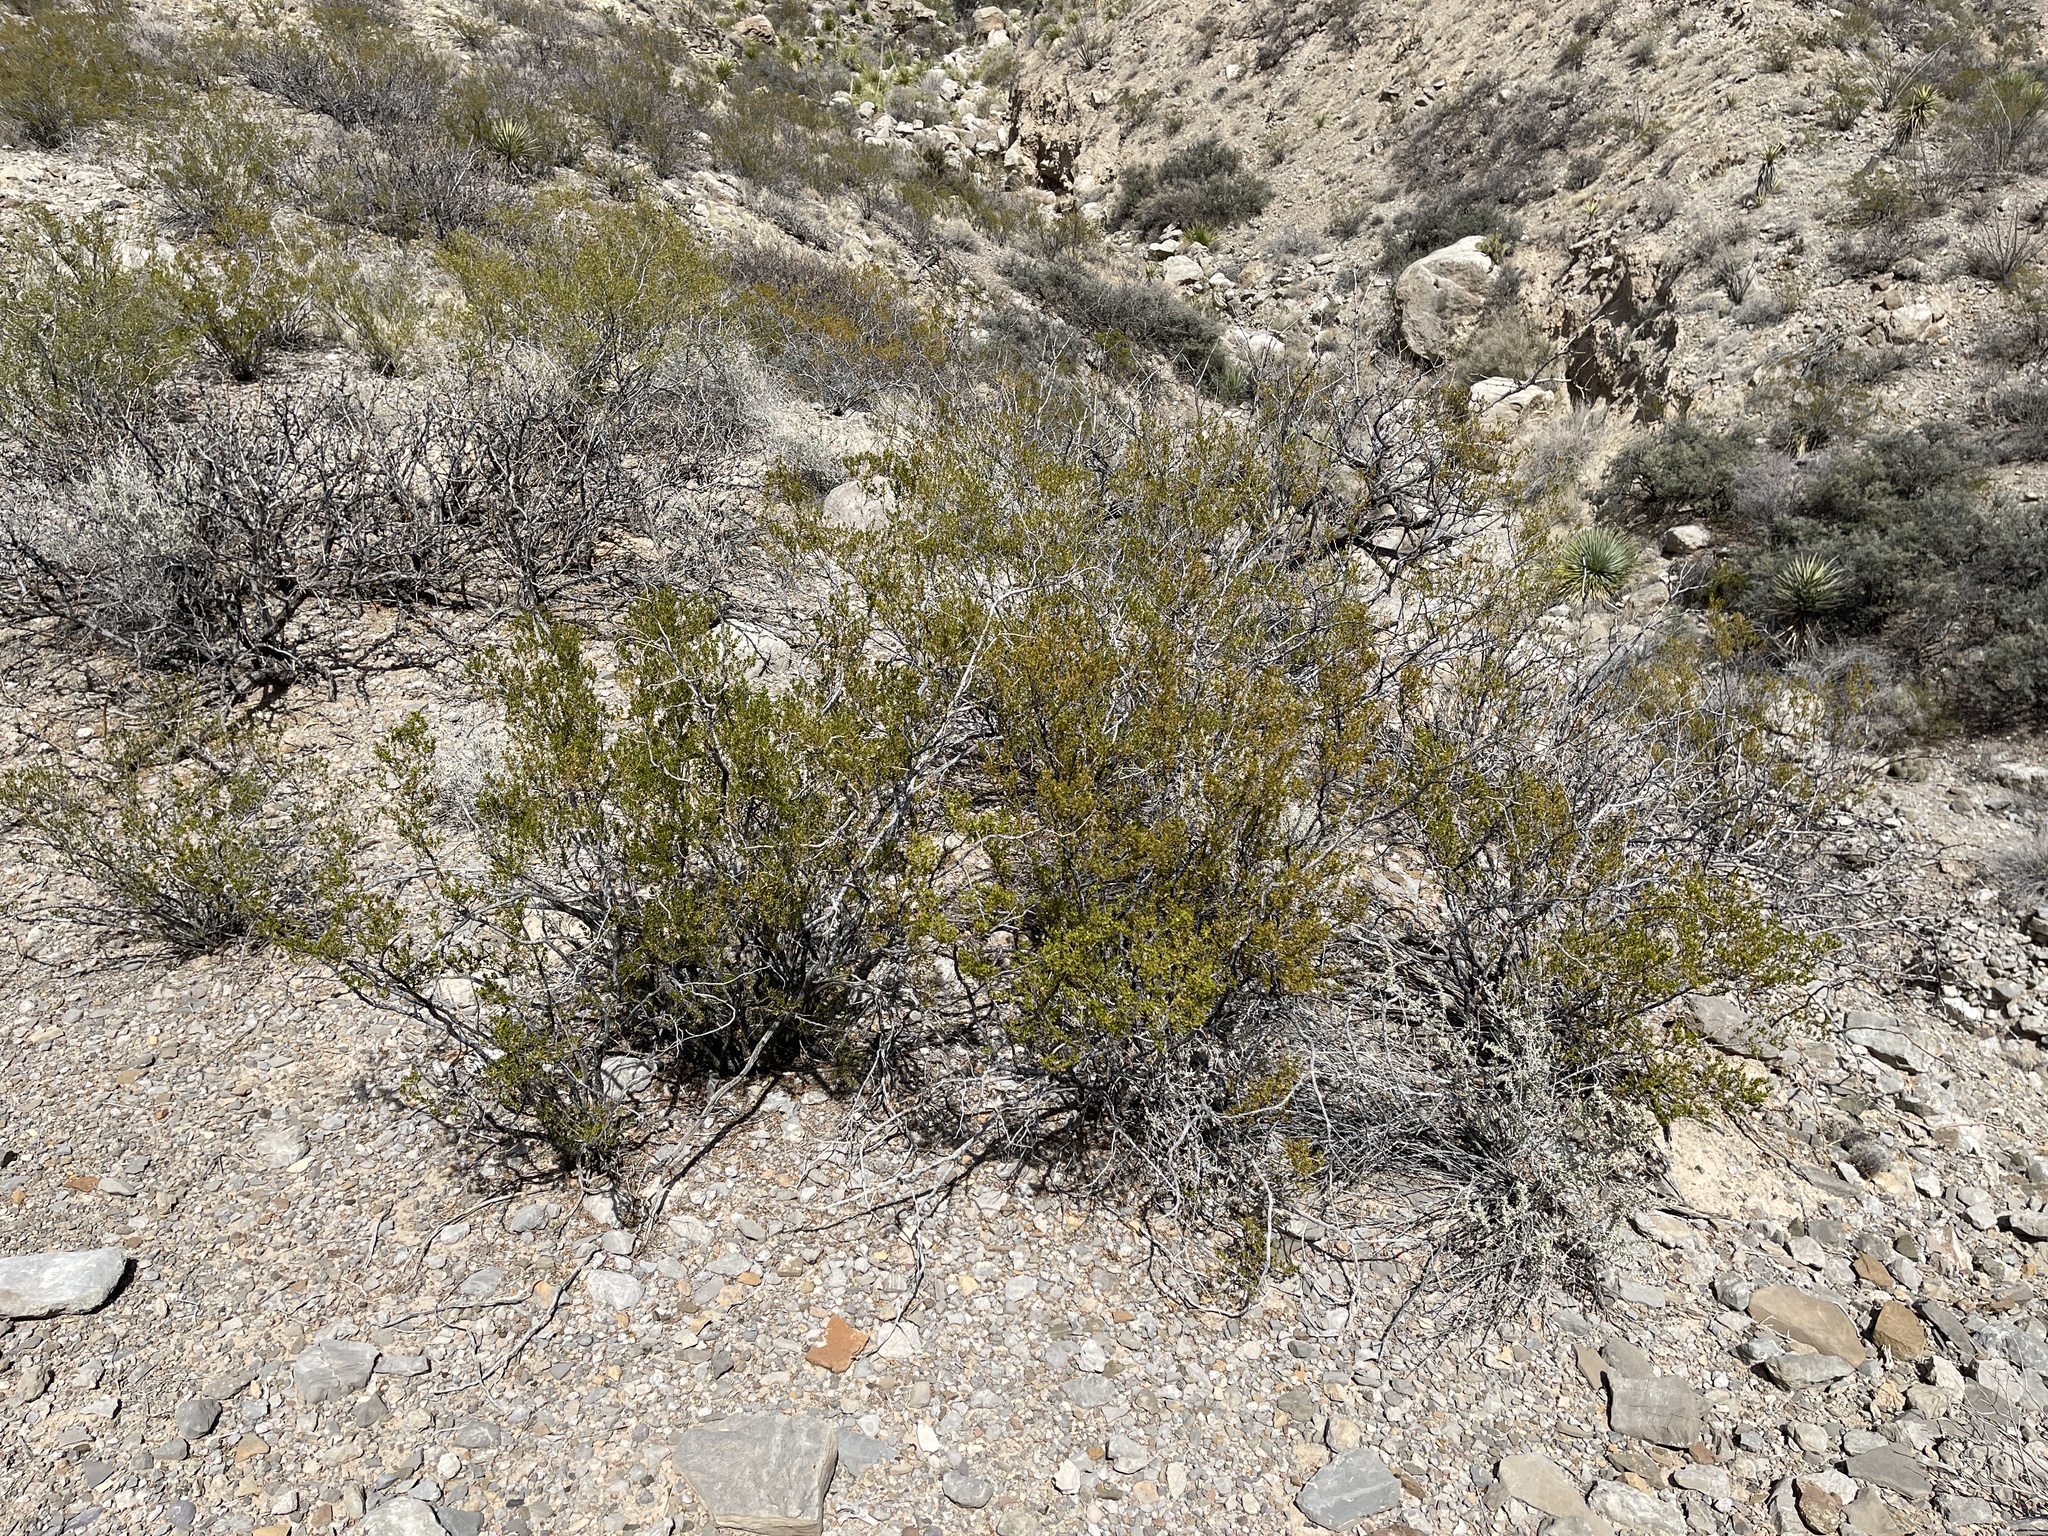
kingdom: Plantae
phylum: Tracheophyta
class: Magnoliopsida
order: Zygophyllales
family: Zygophyllaceae
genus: Larrea
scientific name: Larrea tridentata
